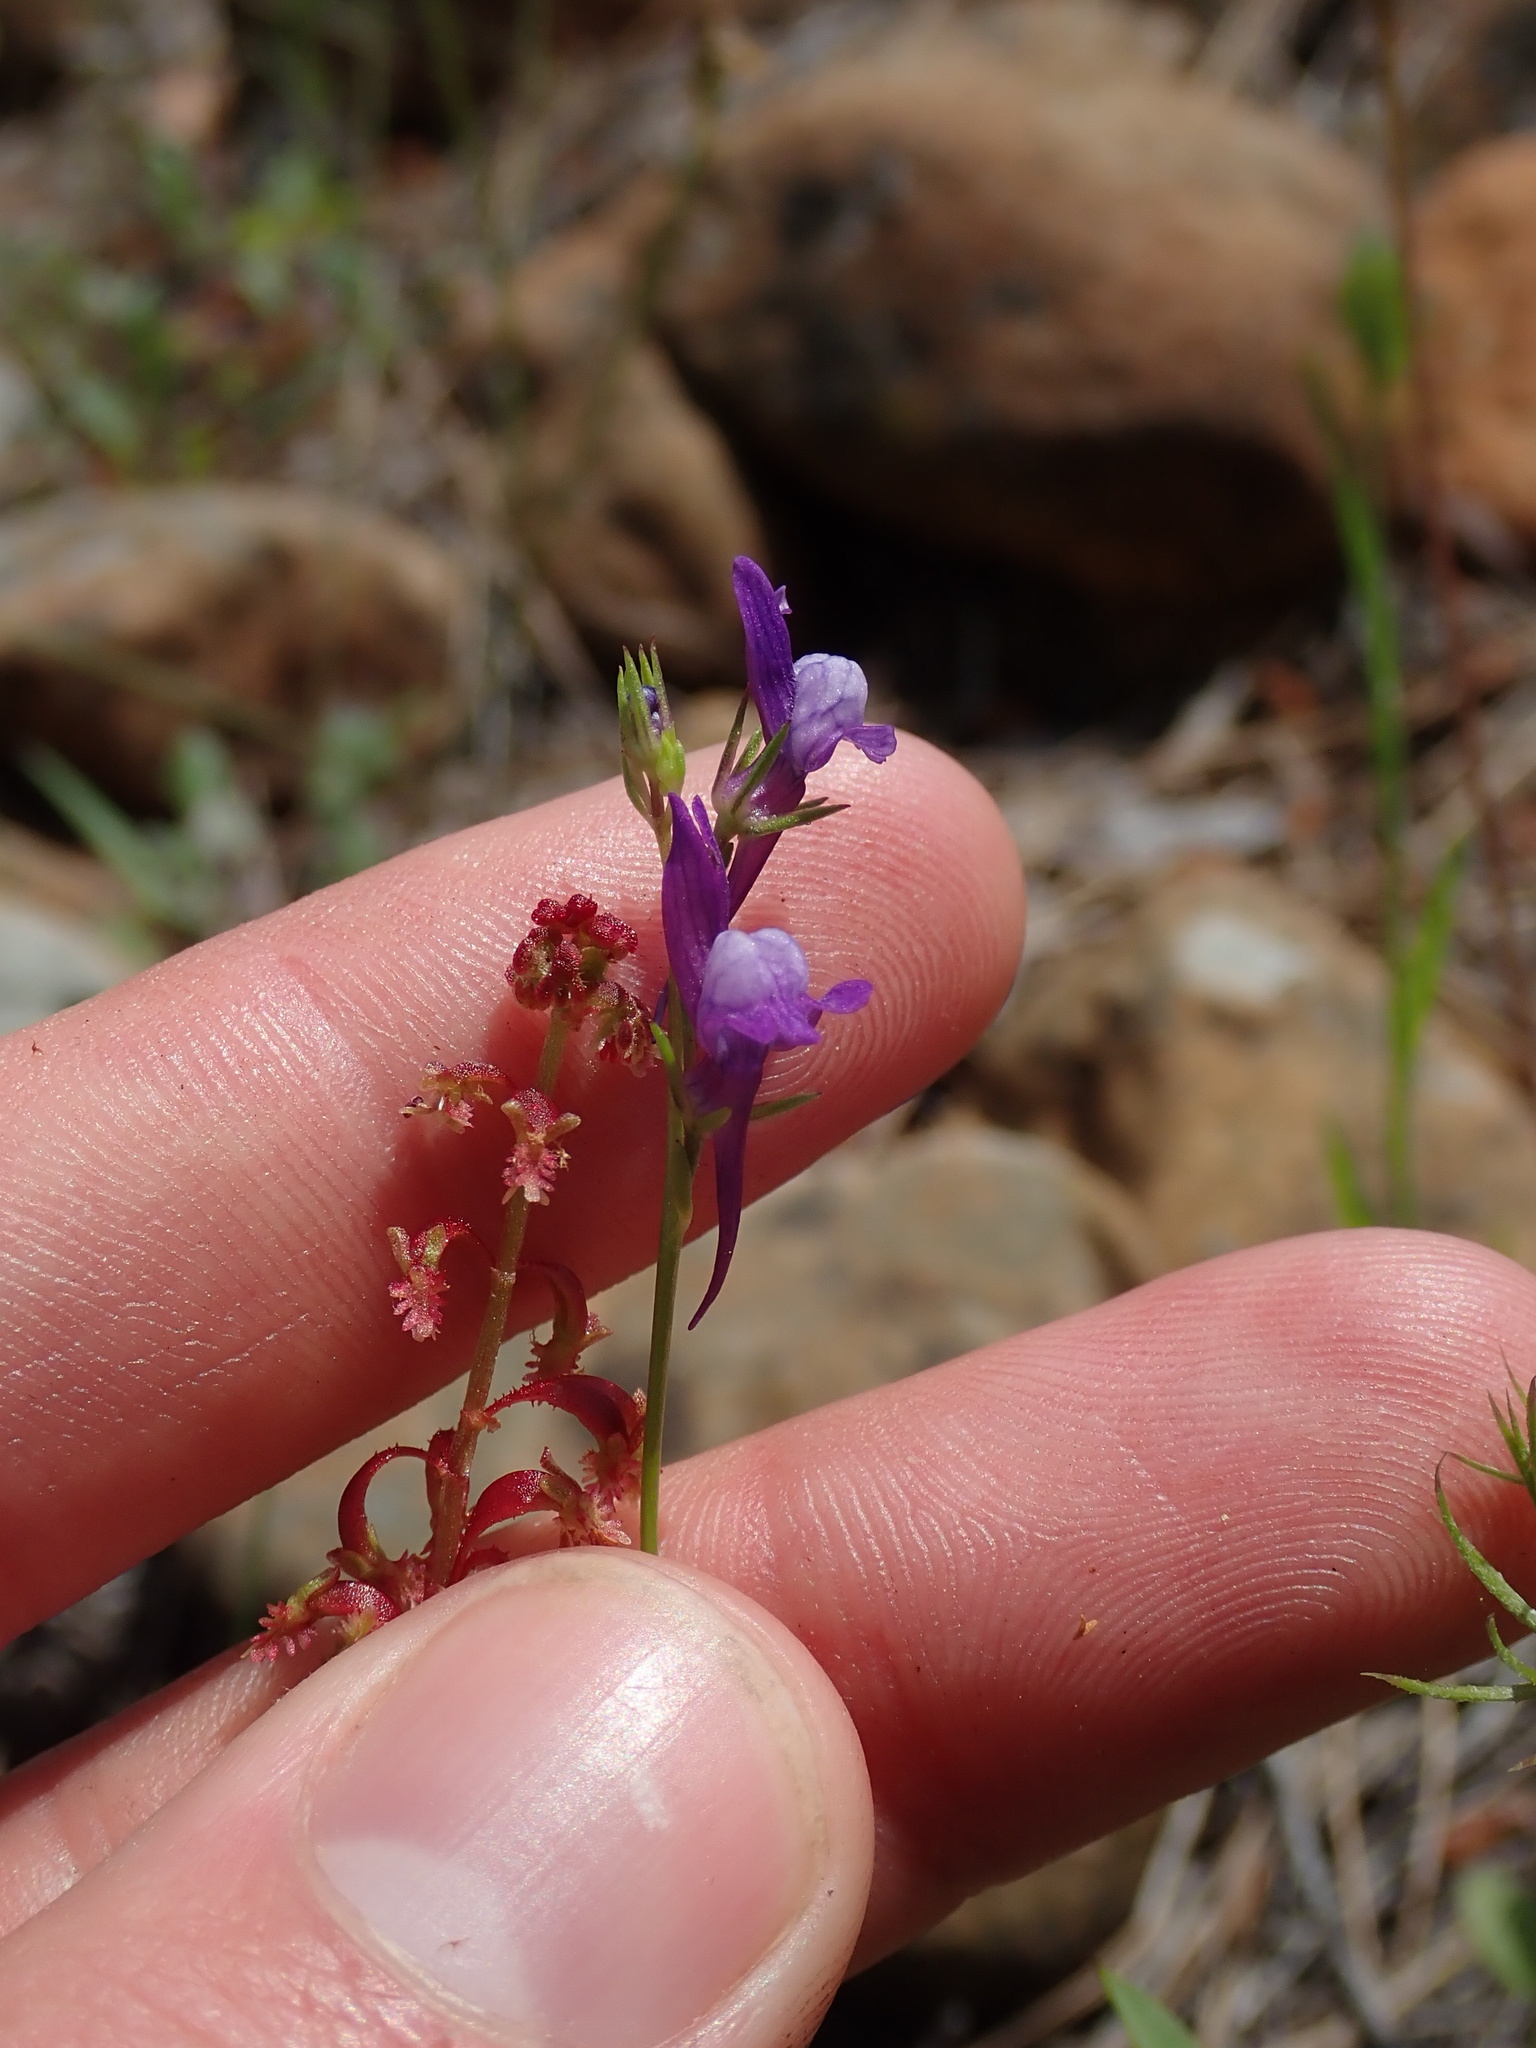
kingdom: Plantae
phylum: Tracheophyta
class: Magnoliopsida
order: Lamiales
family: Plantaginaceae
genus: Linaria
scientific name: Linaria pelisseriana
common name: Jersey toadflax
